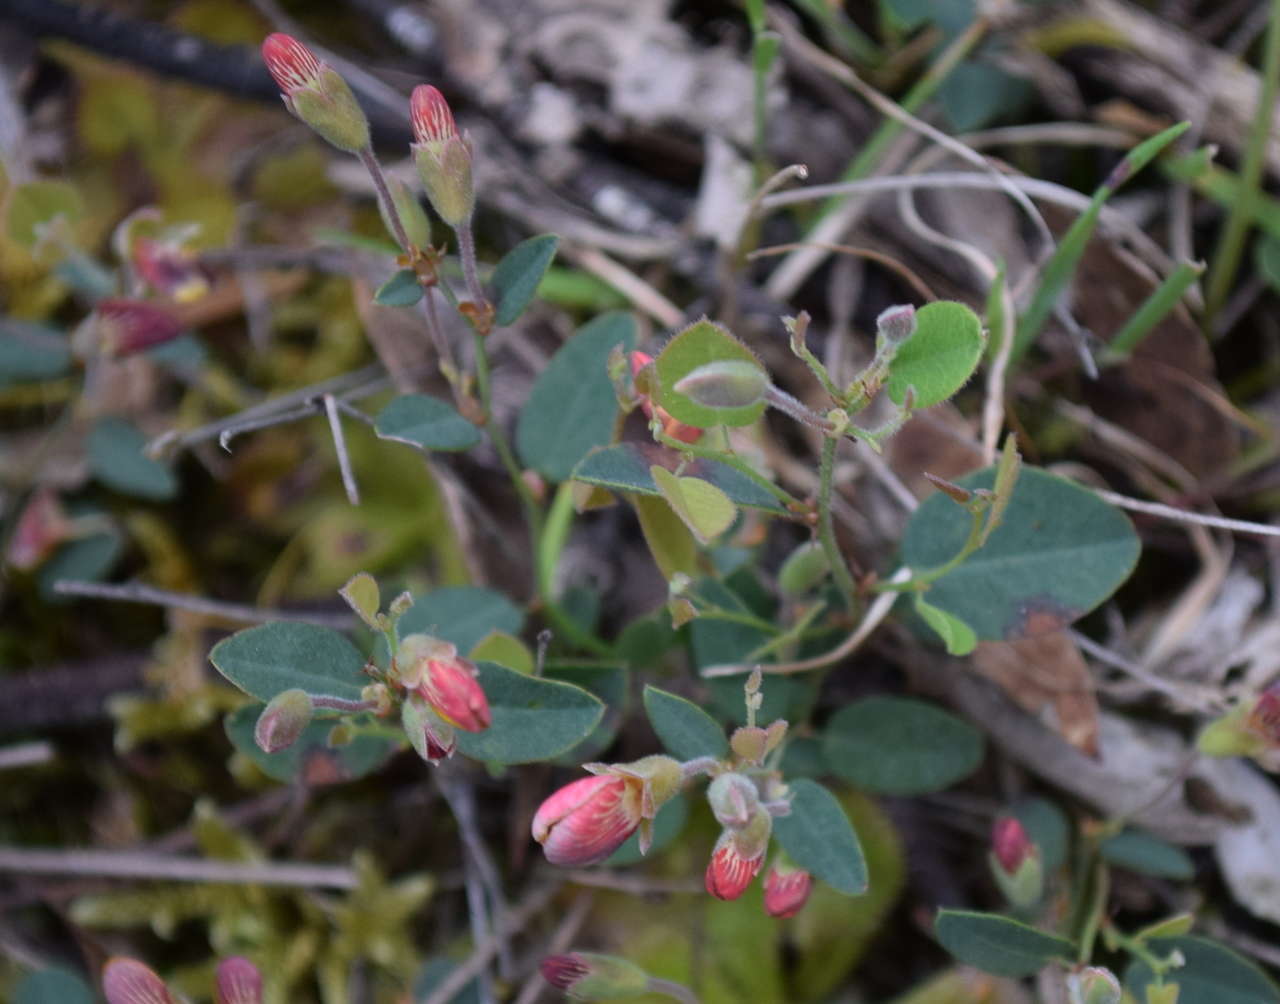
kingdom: Plantae
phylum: Tracheophyta
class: Magnoliopsida
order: Fabales
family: Fabaceae
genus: Bossiaea
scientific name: Bossiaea prostrata
